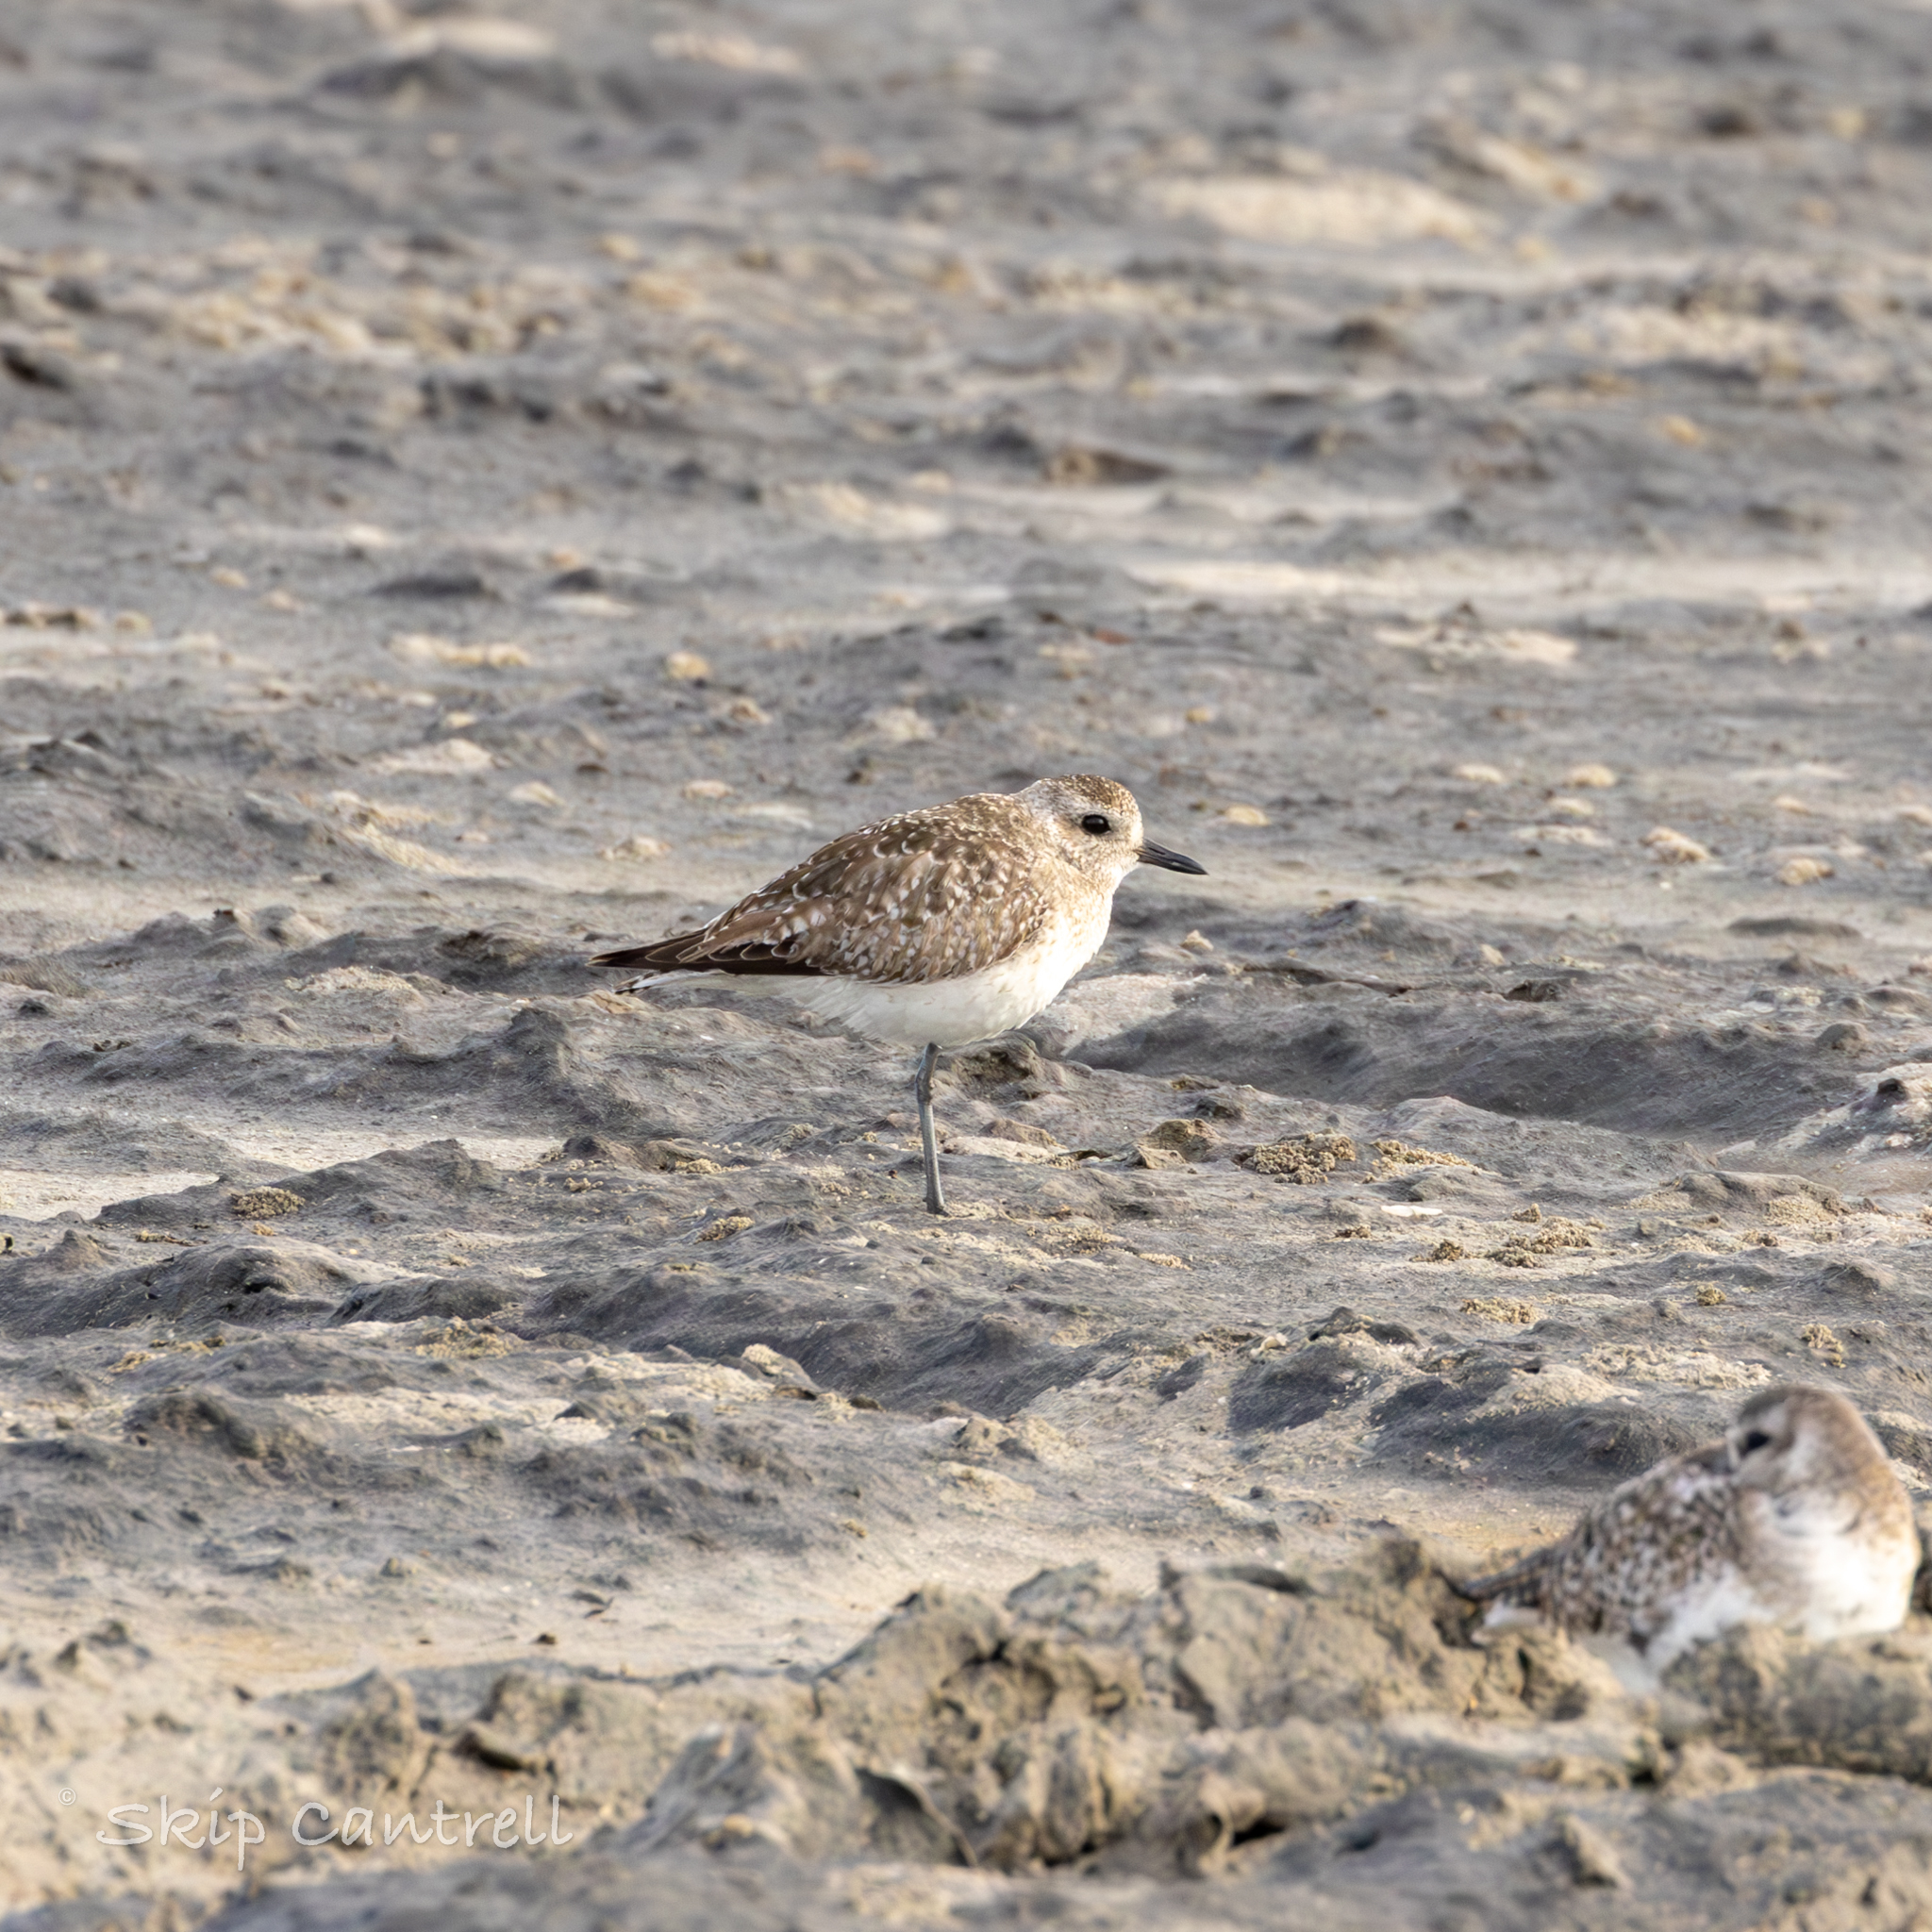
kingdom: Animalia
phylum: Chordata
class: Aves
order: Charadriiformes
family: Charadriidae
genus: Pluvialis
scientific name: Pluvialis squatarola
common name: Grey plover
